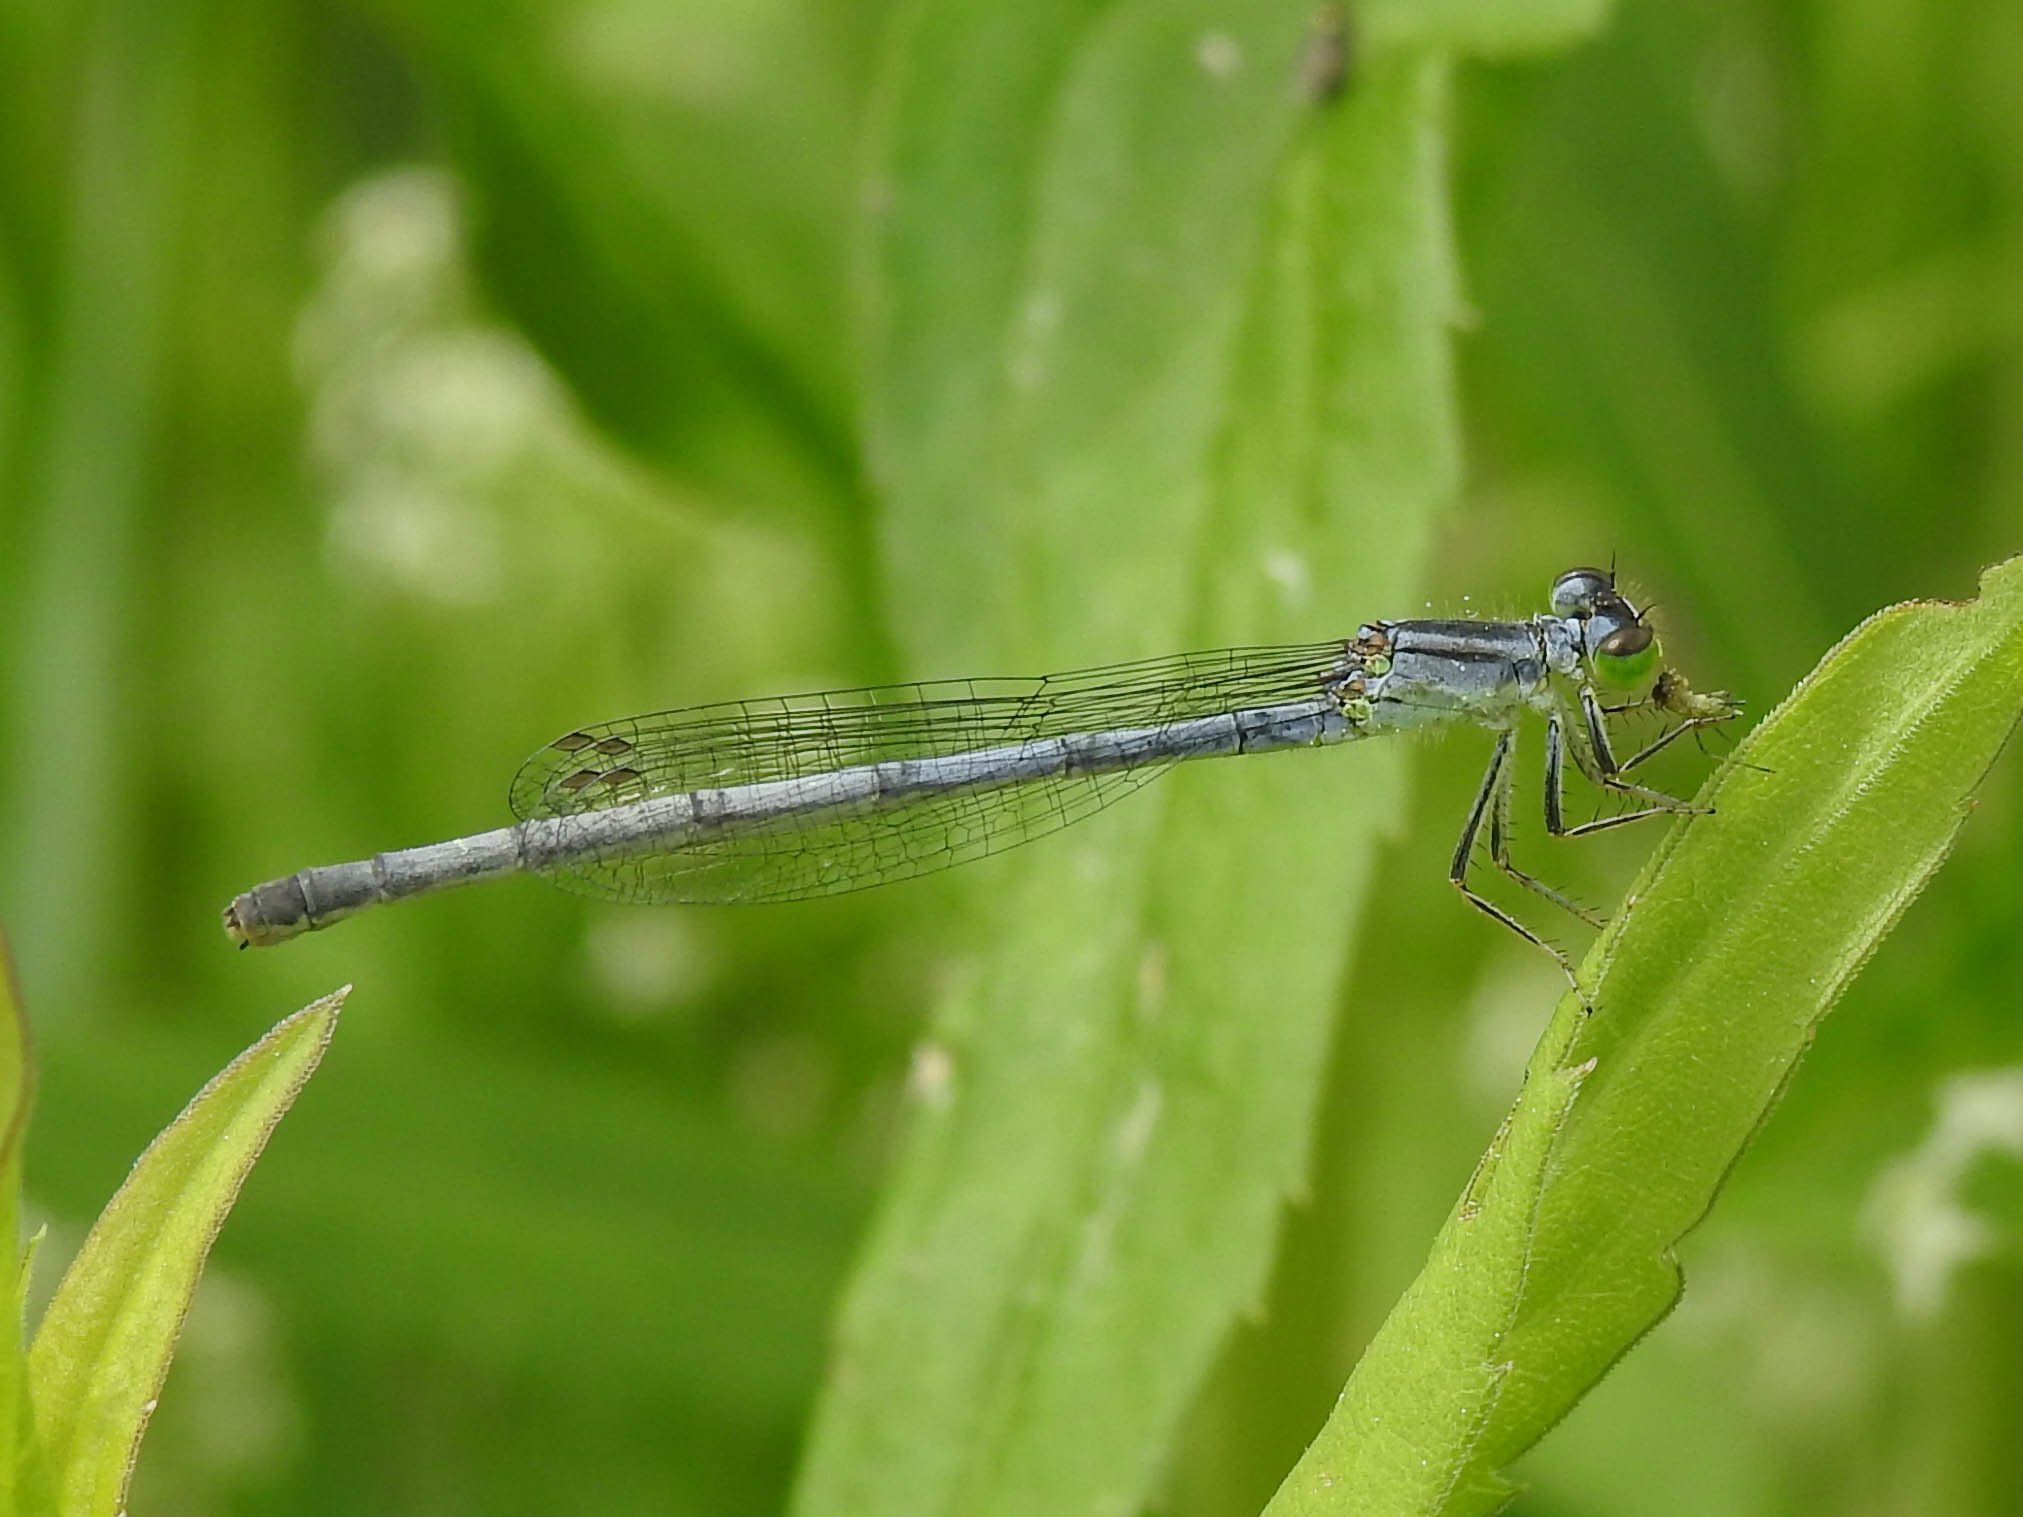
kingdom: Animalia
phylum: Arthropoda
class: Insecta
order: Odonata
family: Coenagrionidae
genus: Ischnura
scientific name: Ischnura verticalis
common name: Eastern forktail
